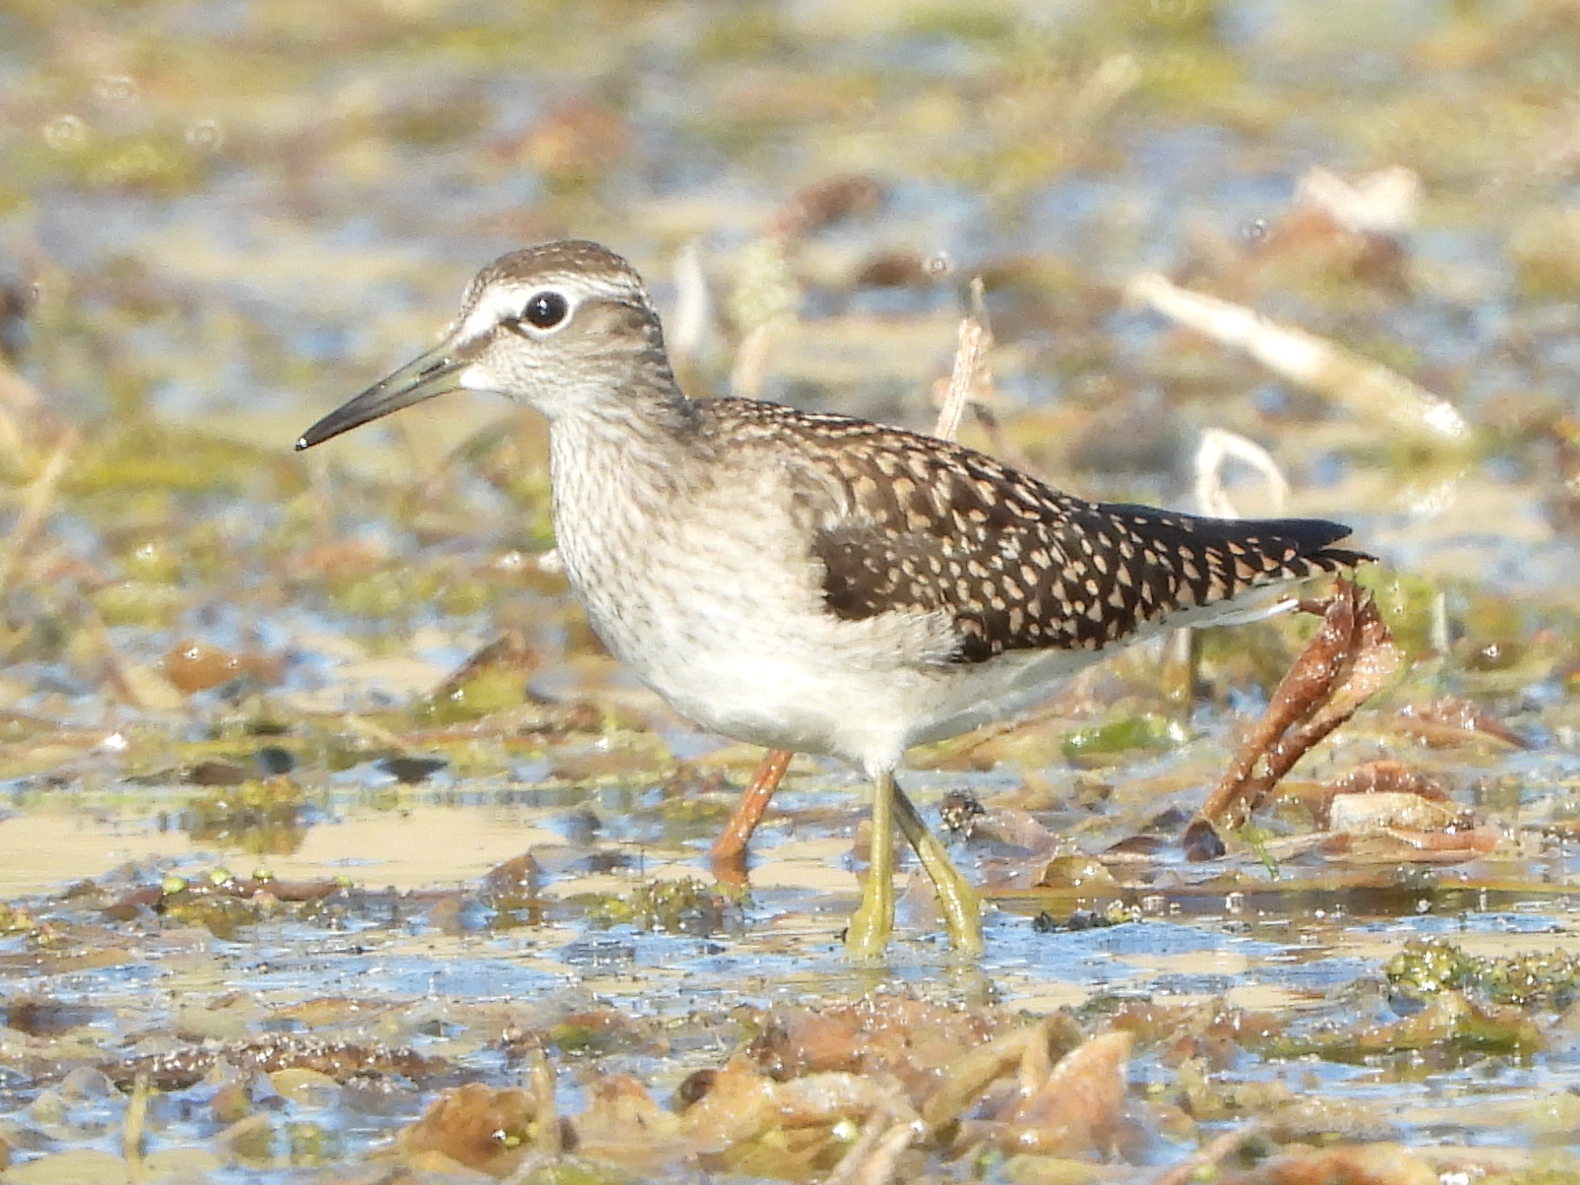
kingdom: Animalia
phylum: Chordata
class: Aves
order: Charadriiformes
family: Scolopacidae
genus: Tringa
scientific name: Tringa glareola
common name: Wood sandpiper
